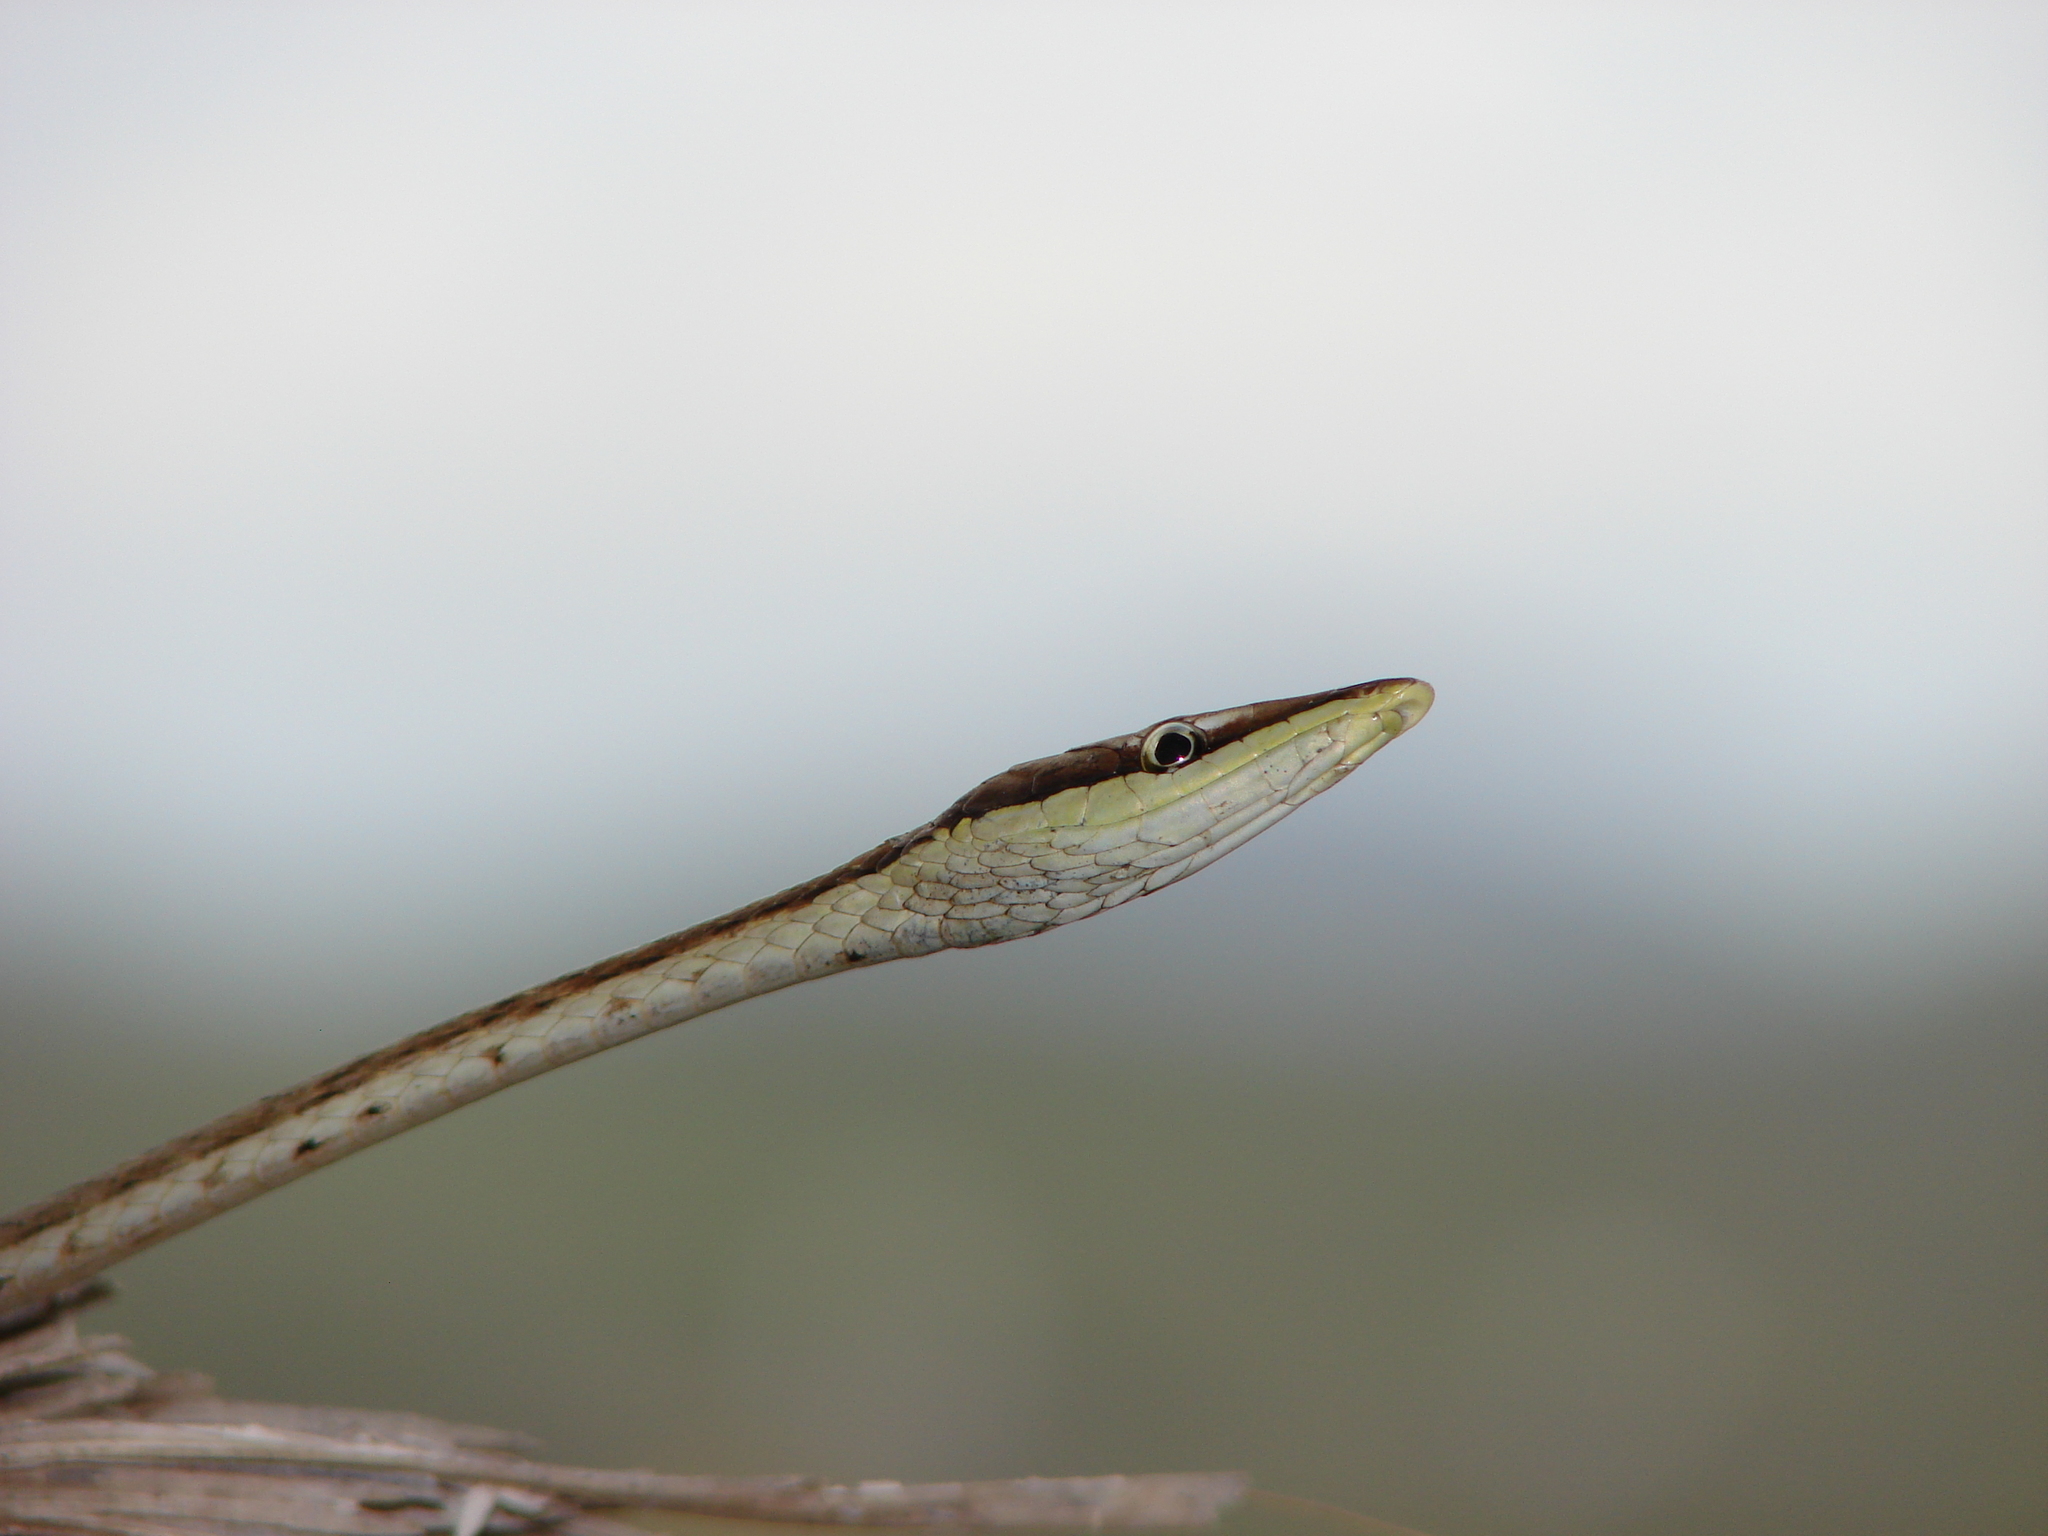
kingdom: Animalia
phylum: Chordata
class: Squamata
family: Colubridae
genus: Oxybelis
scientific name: Oxybelis microphthalmus
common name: Thrornscrub vine snake
